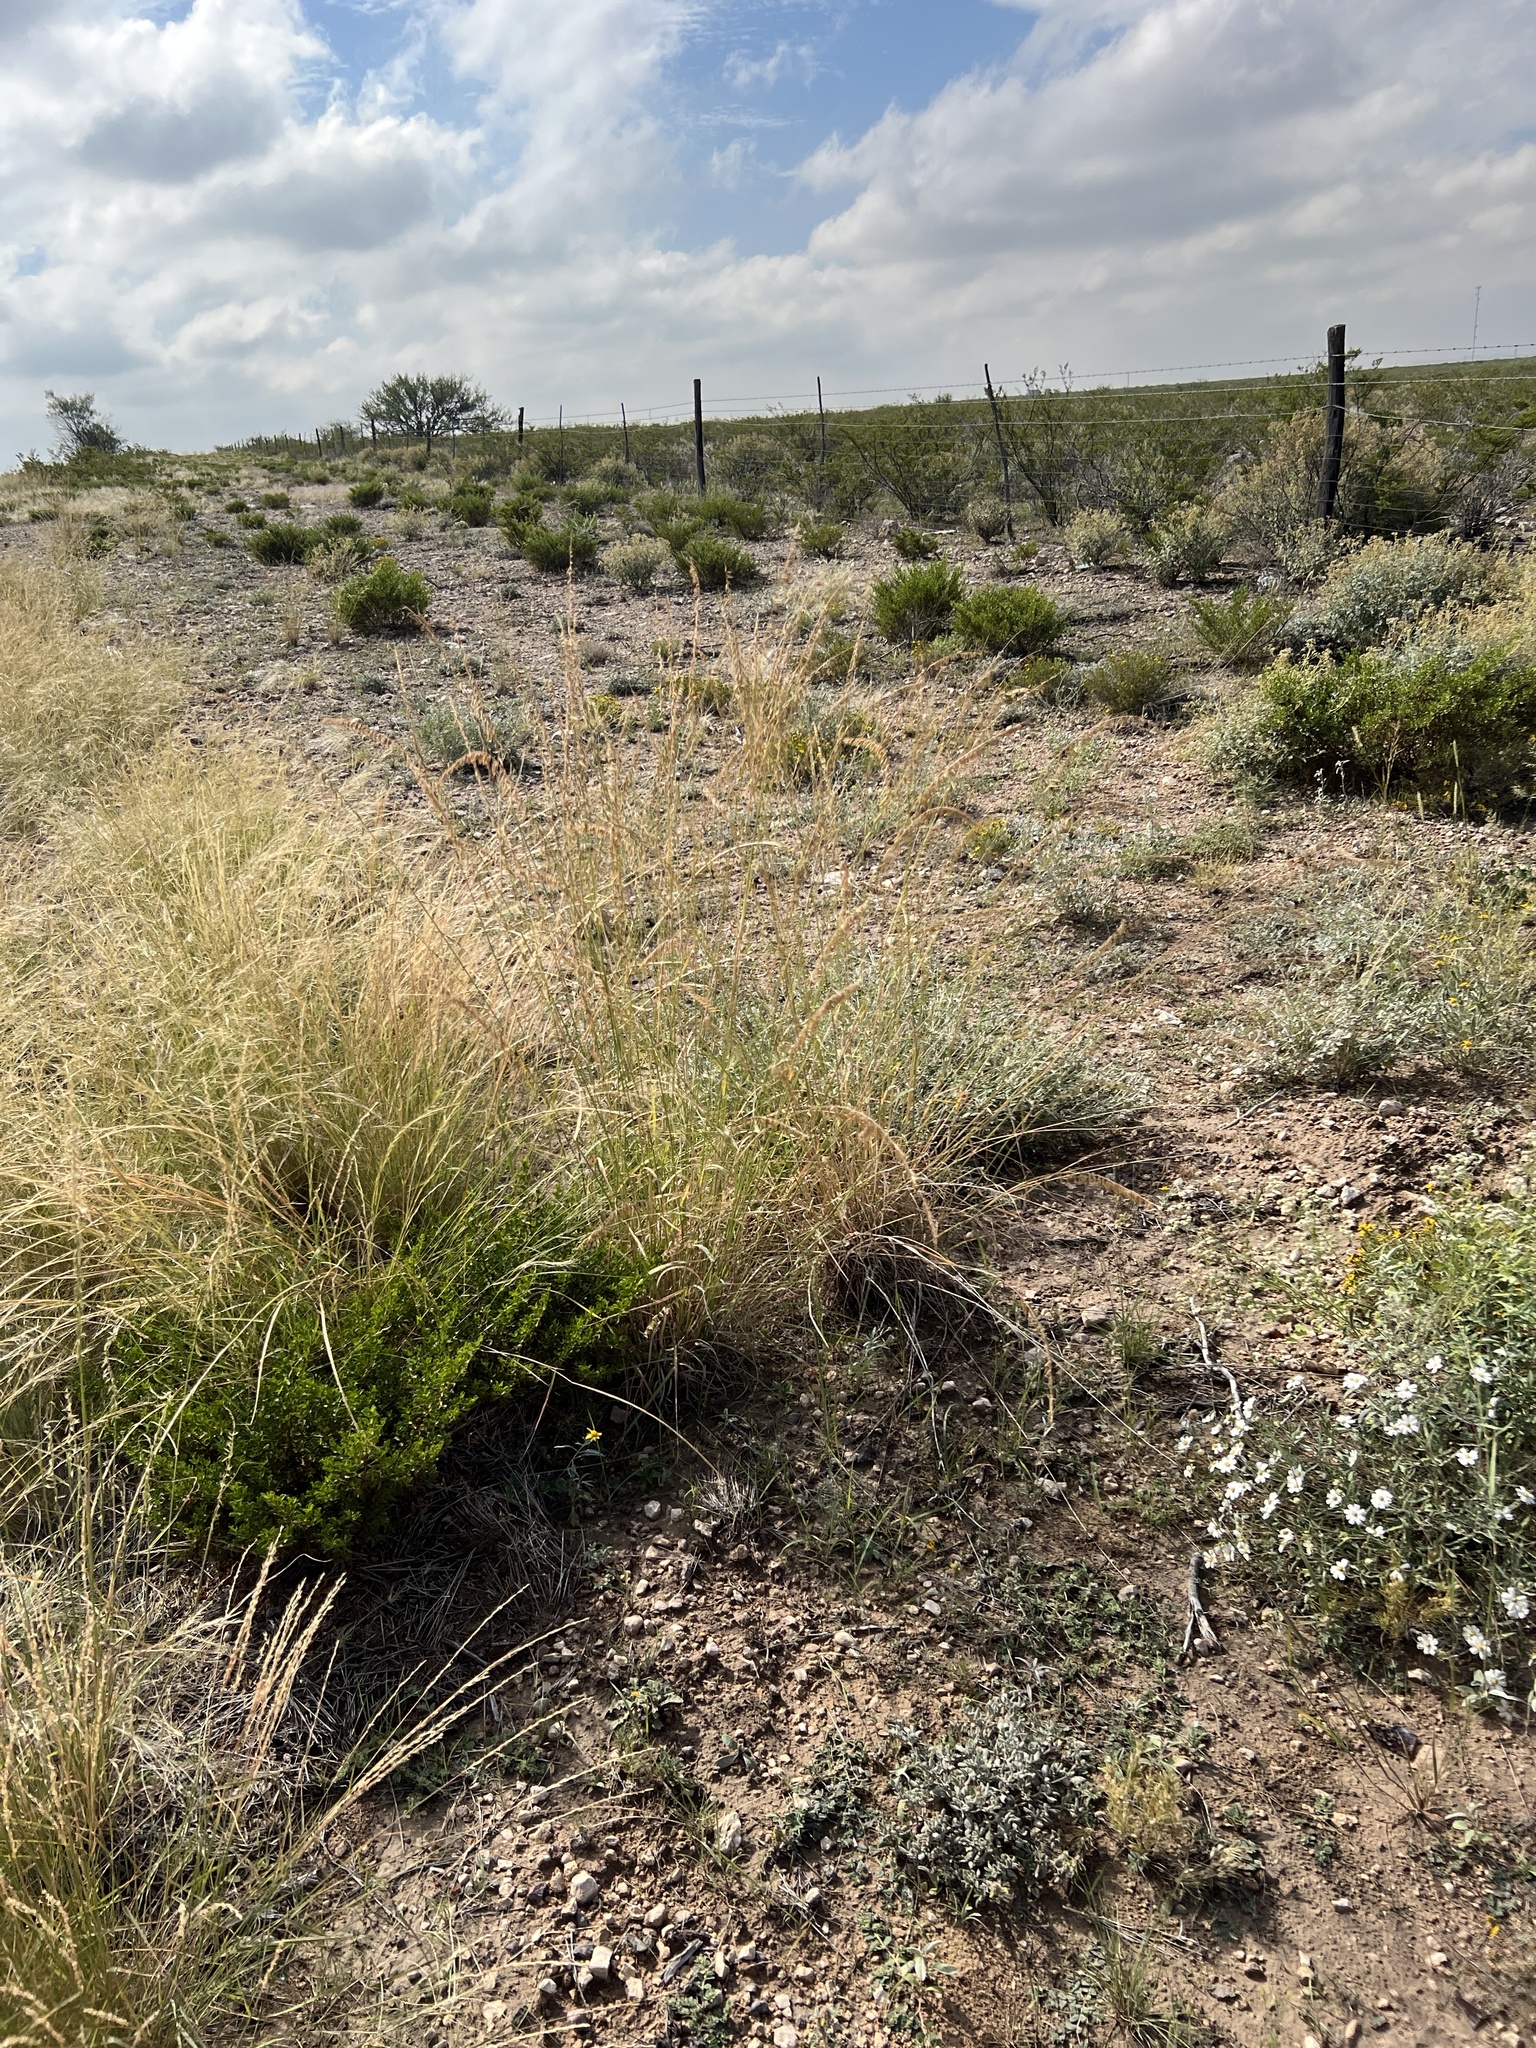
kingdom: Plantae
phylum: Tracheophyta
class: Liliopsida
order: Poales
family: Poaceae
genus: Bouteloua
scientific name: Bouteloua curtipendula
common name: Side-oats grama
